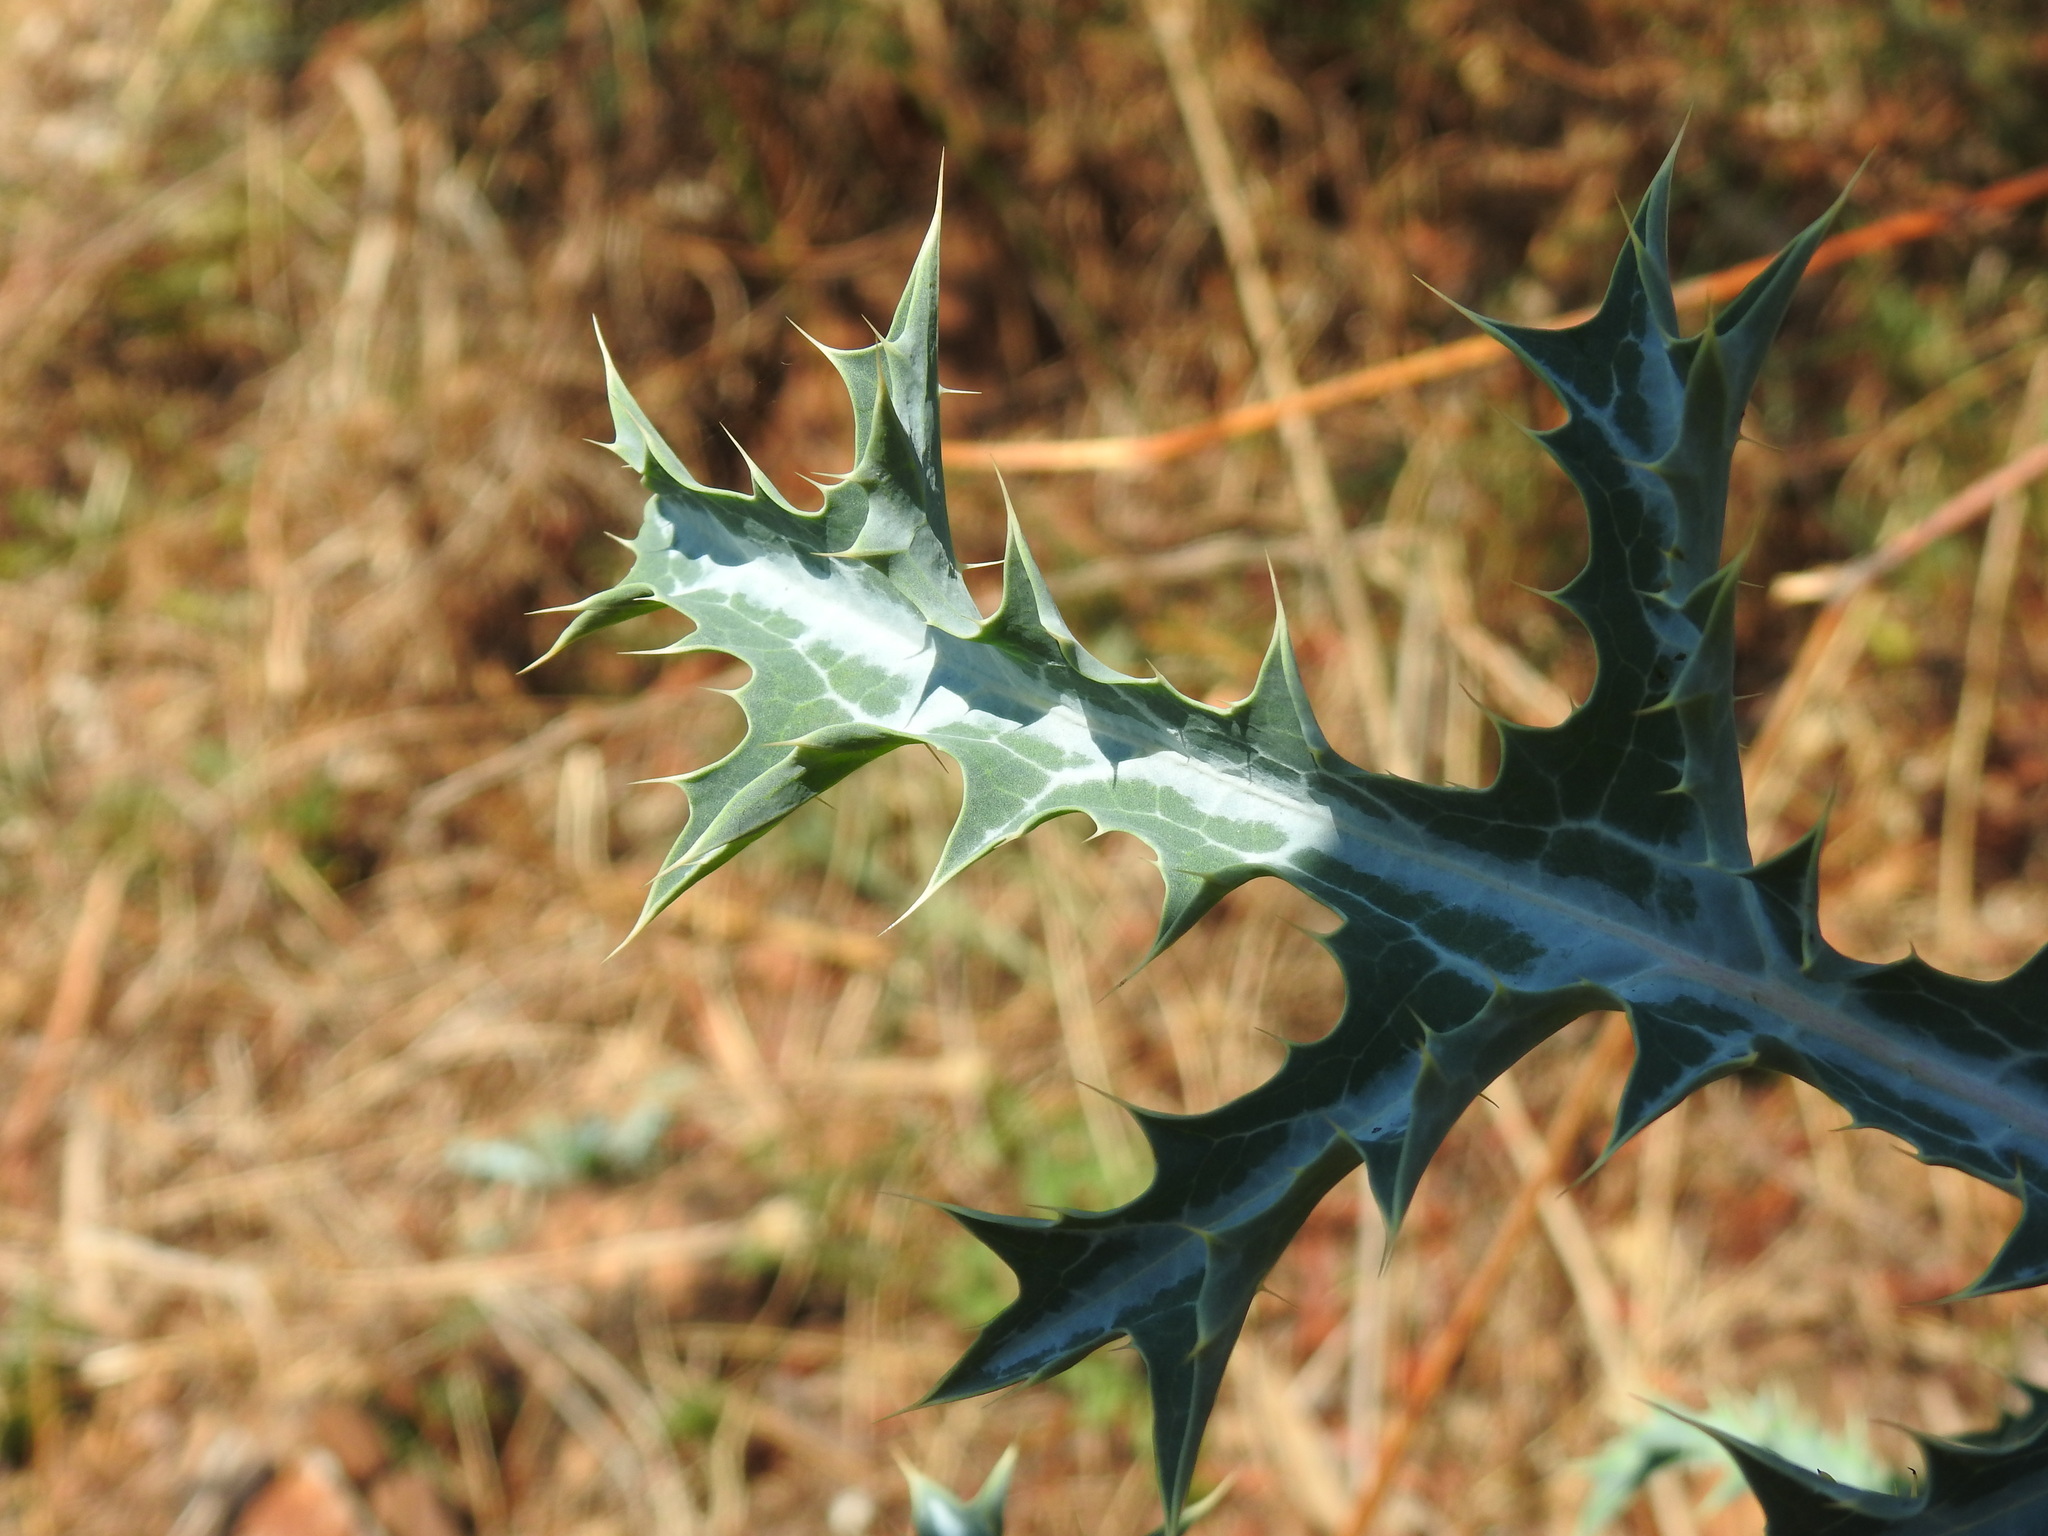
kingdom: Plantae
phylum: Tracheophyta
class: Magnoliopsida
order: Ranunculales
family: Papaveraceae
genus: Argemone
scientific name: Argemone ochroleuca
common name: White-flower mexican-poppy
